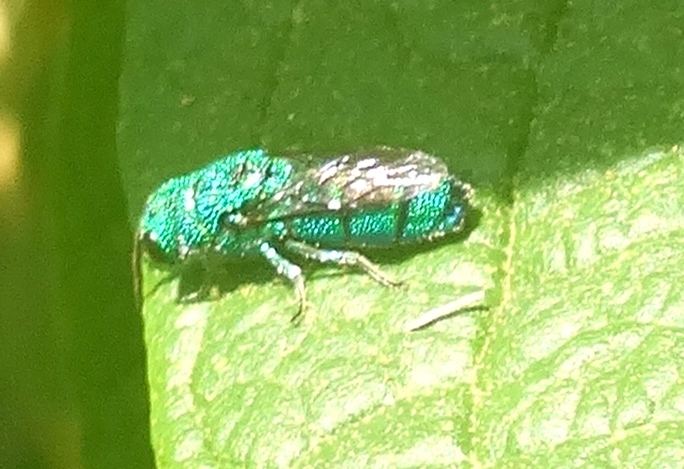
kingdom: Animalia
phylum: Arthropoda
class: Insecta
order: Hymenoptera
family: Chrysididae
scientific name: Chrysididae
